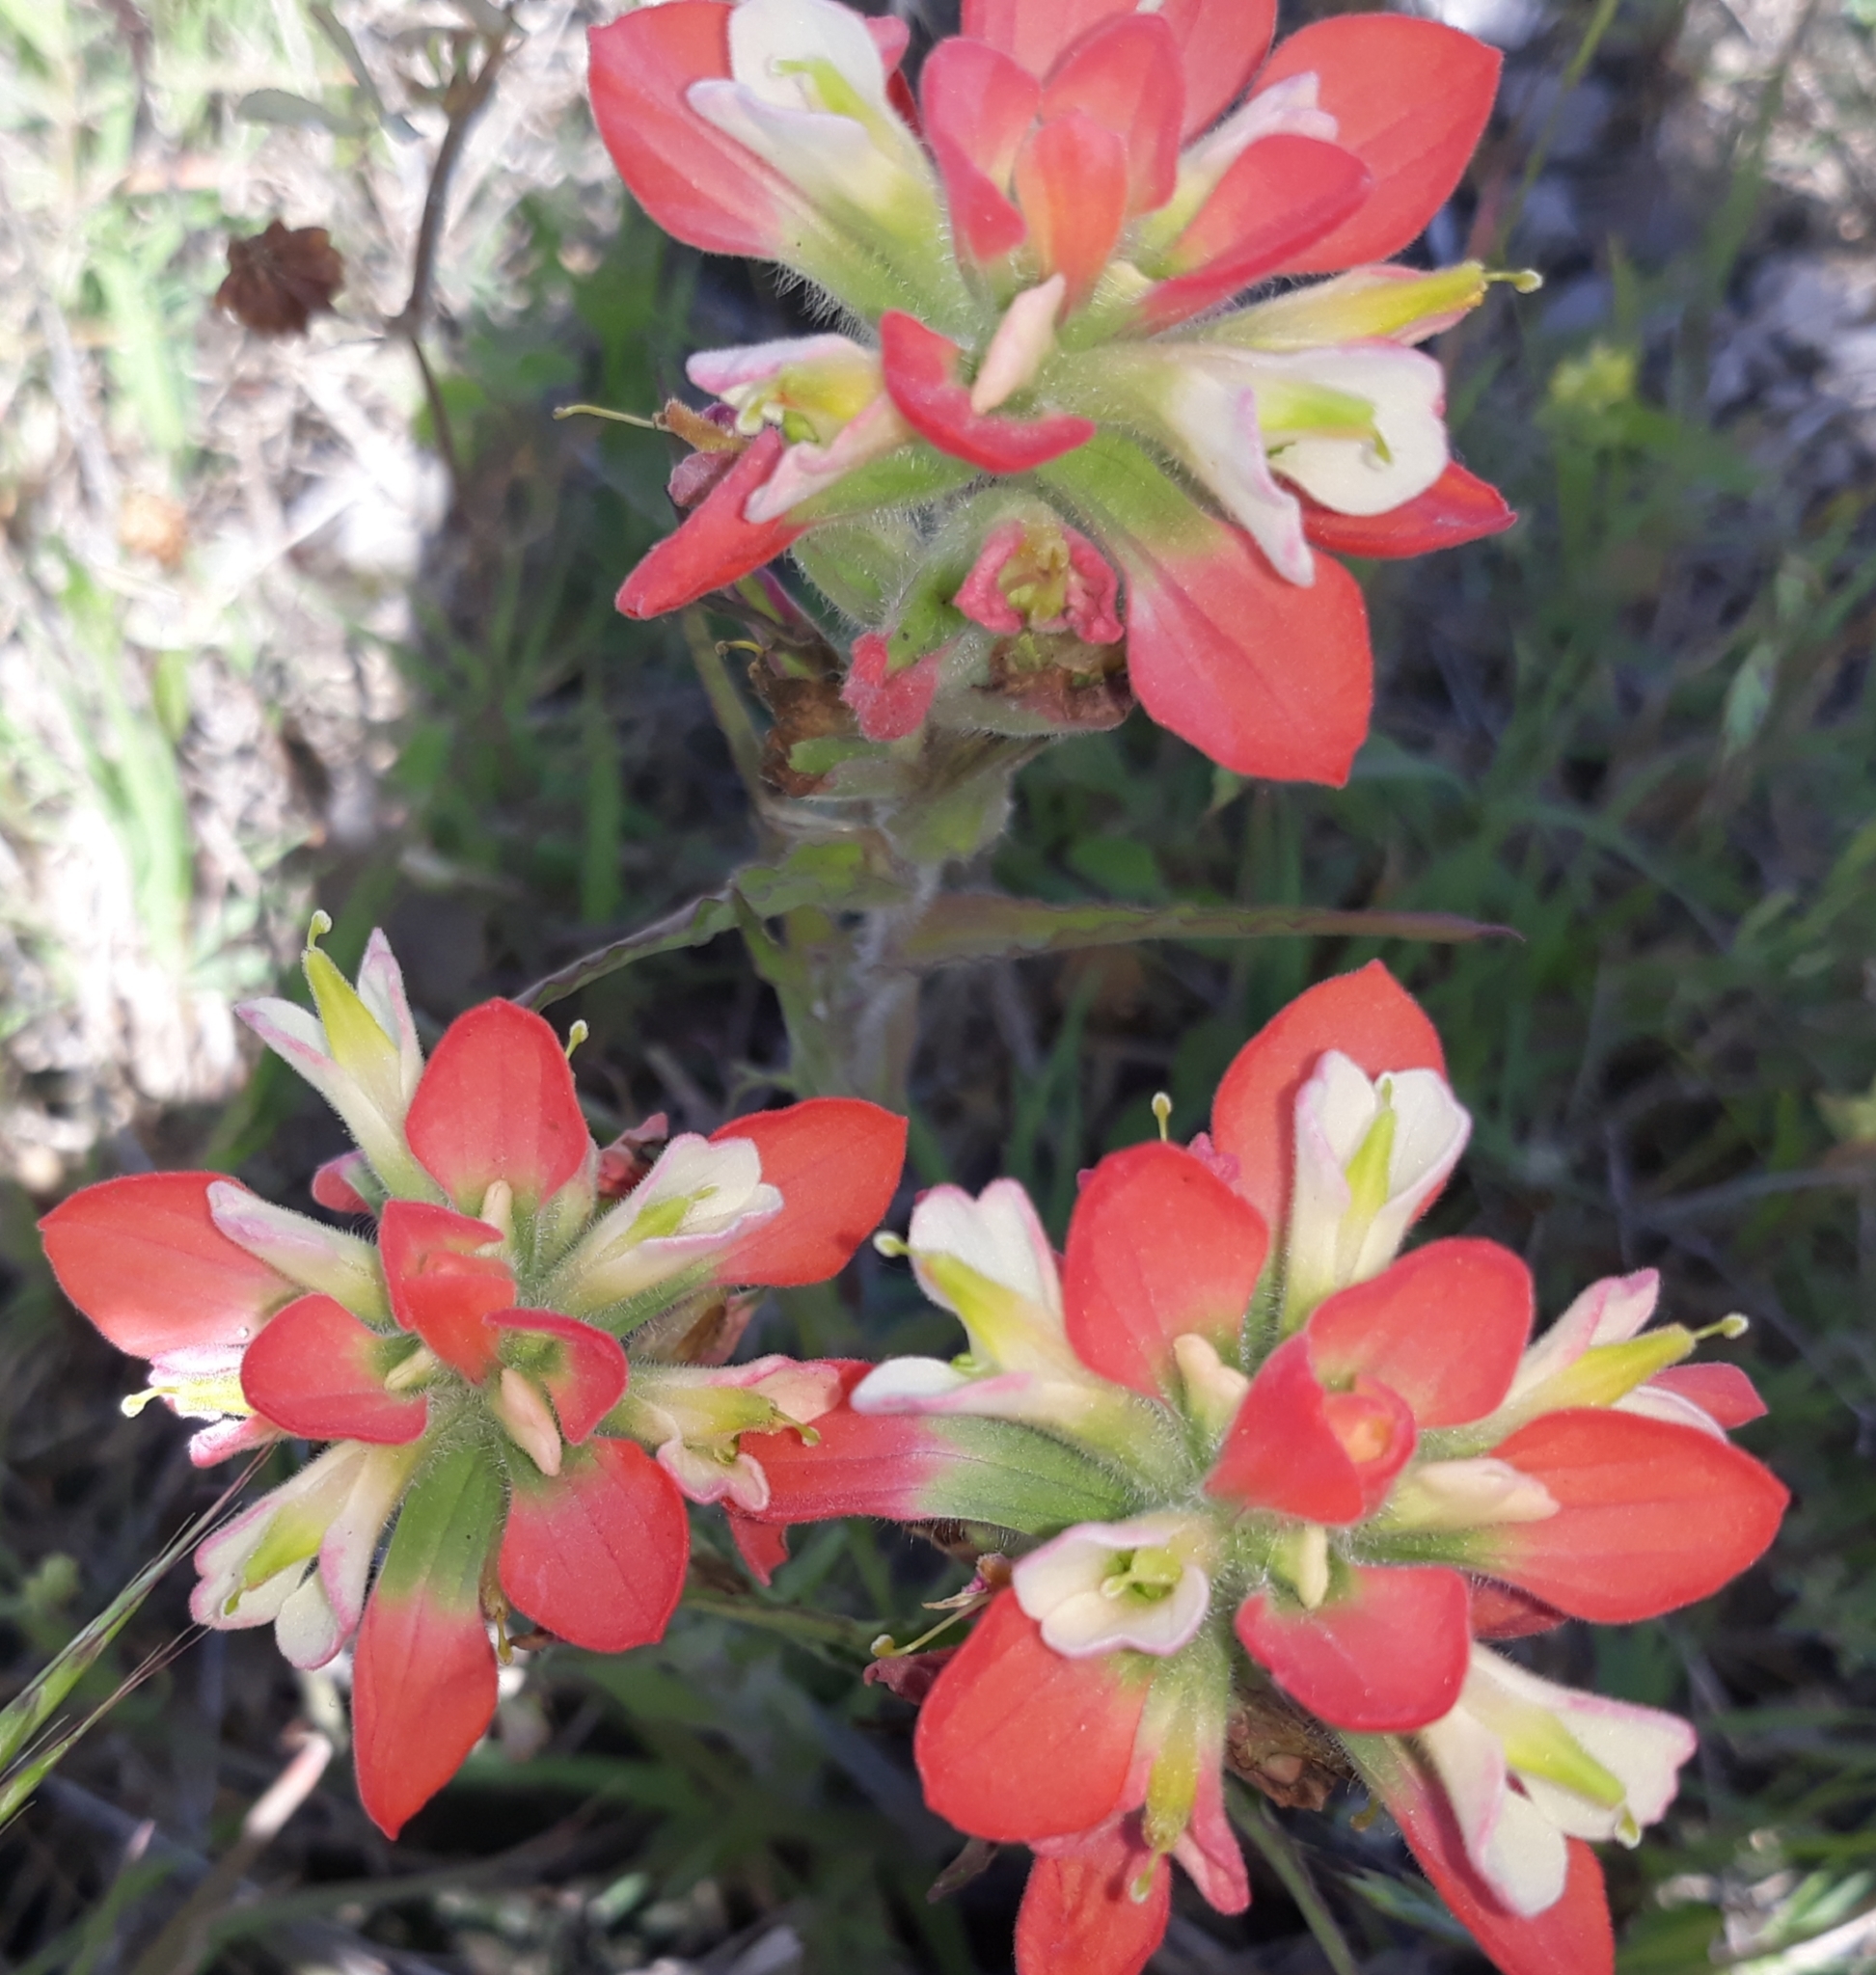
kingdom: Plantae
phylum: Tracheophyta
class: Magnoliopsida
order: Lamiales
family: Orobanchaceae
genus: Castilleja
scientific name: Castilleja indivisa
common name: Texas paintbrush
